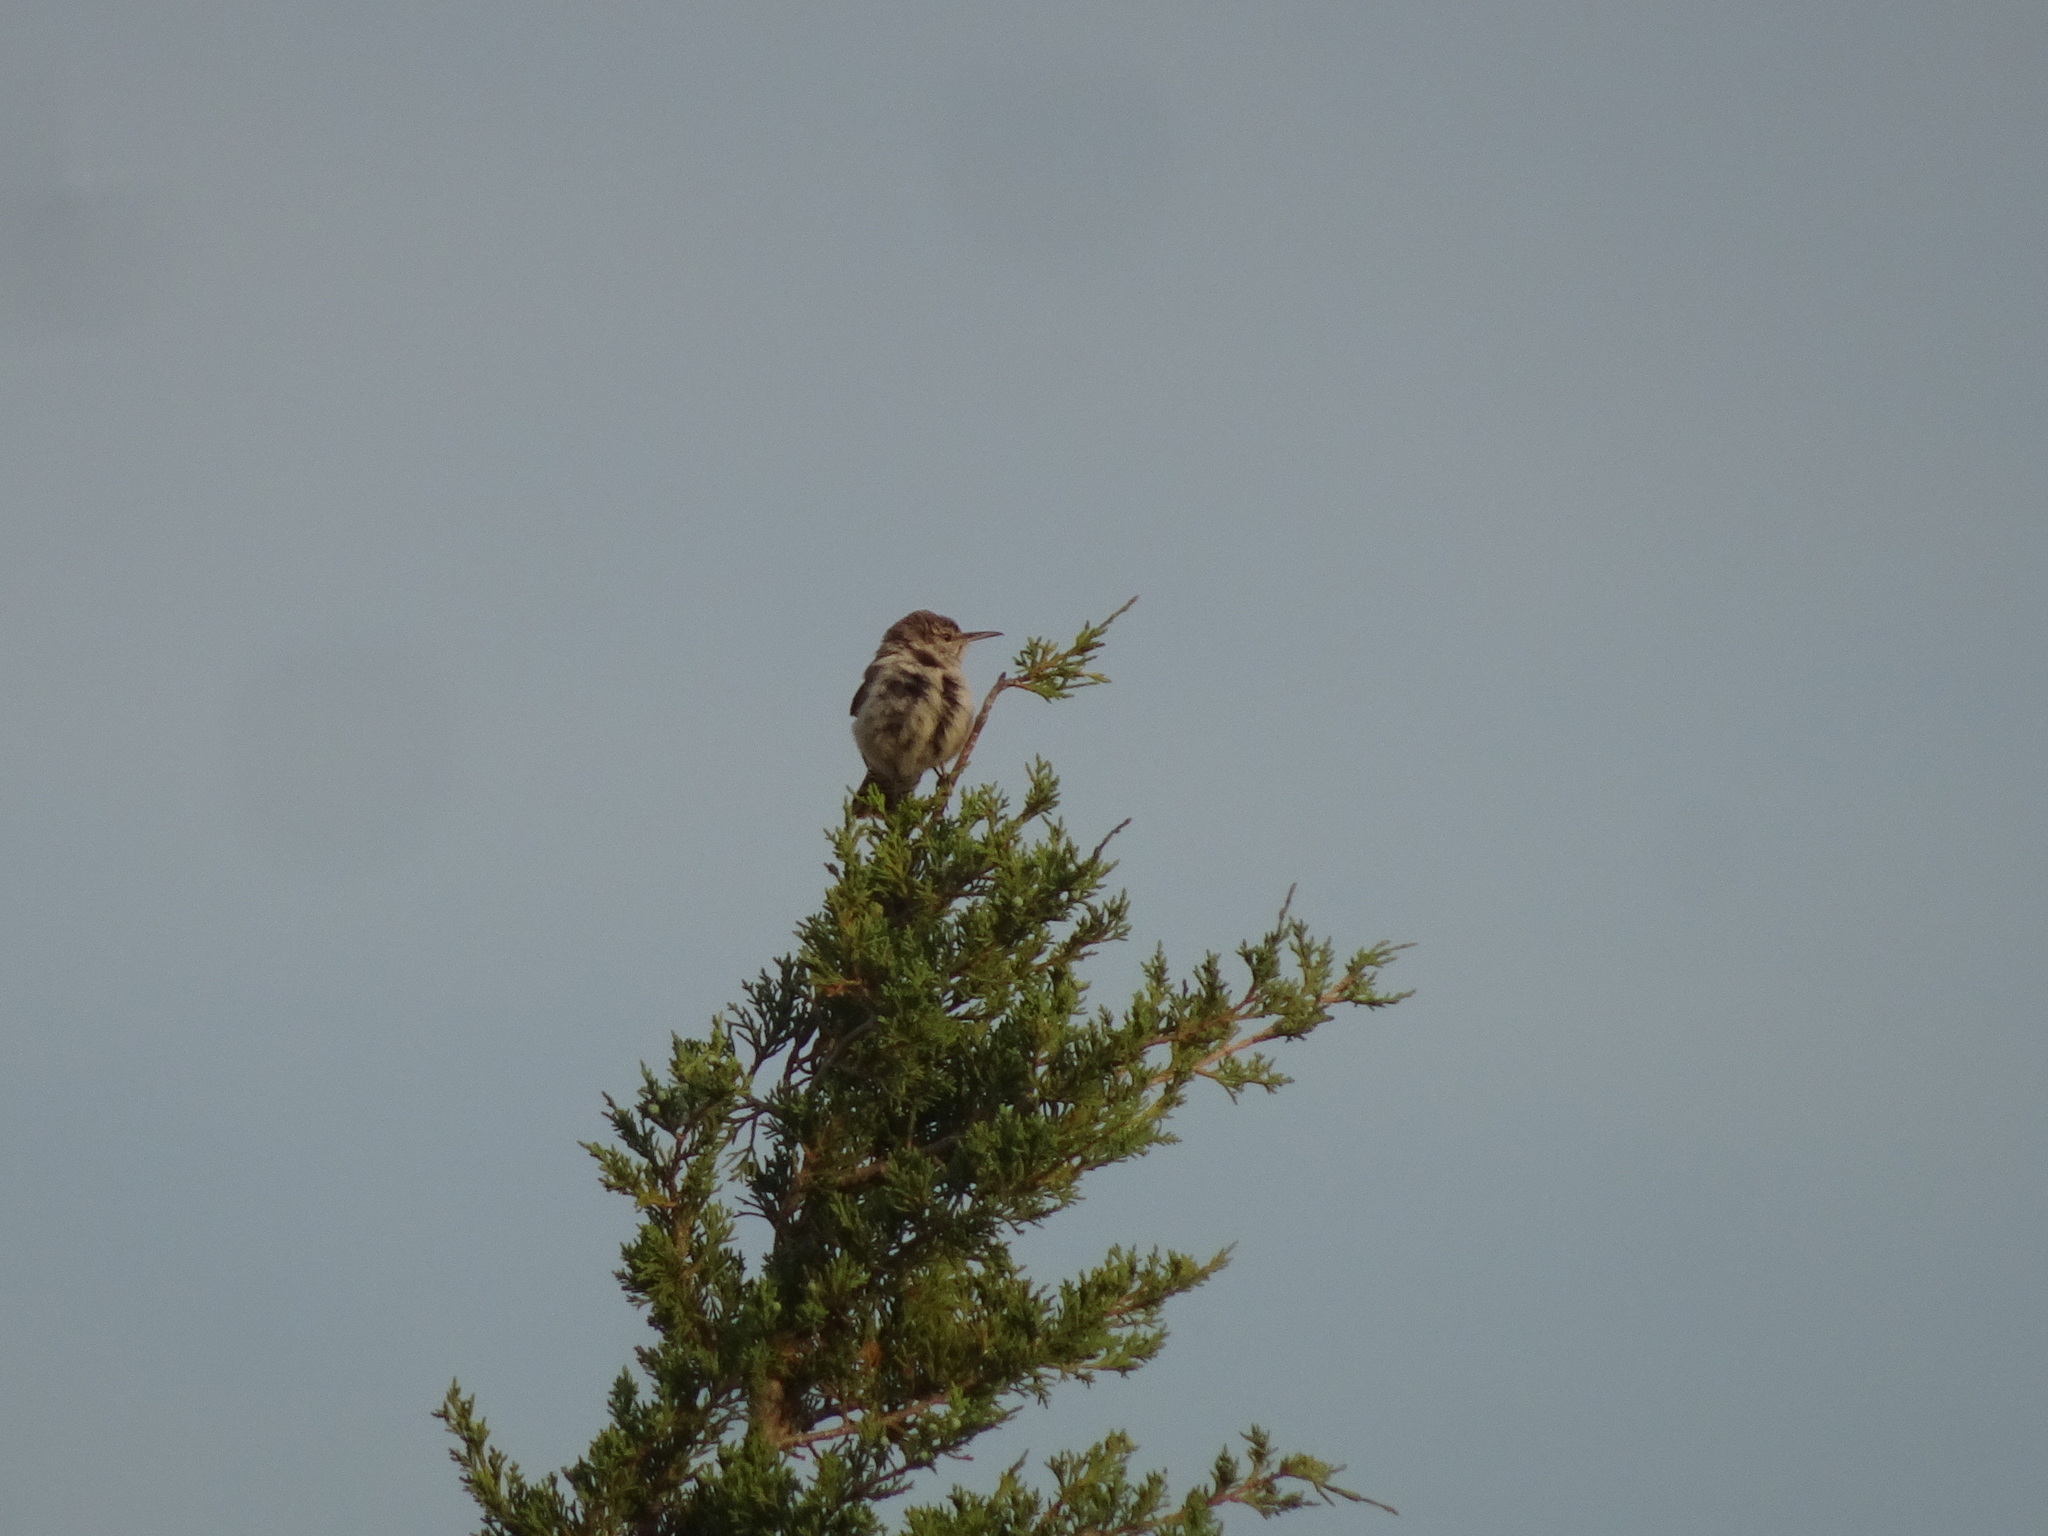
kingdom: Animalia
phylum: Chordata
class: Aves
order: Passeriformes
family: Troglodytidae
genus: Salpinctes
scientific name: Salpinctes obsoletus
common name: Rock wren
